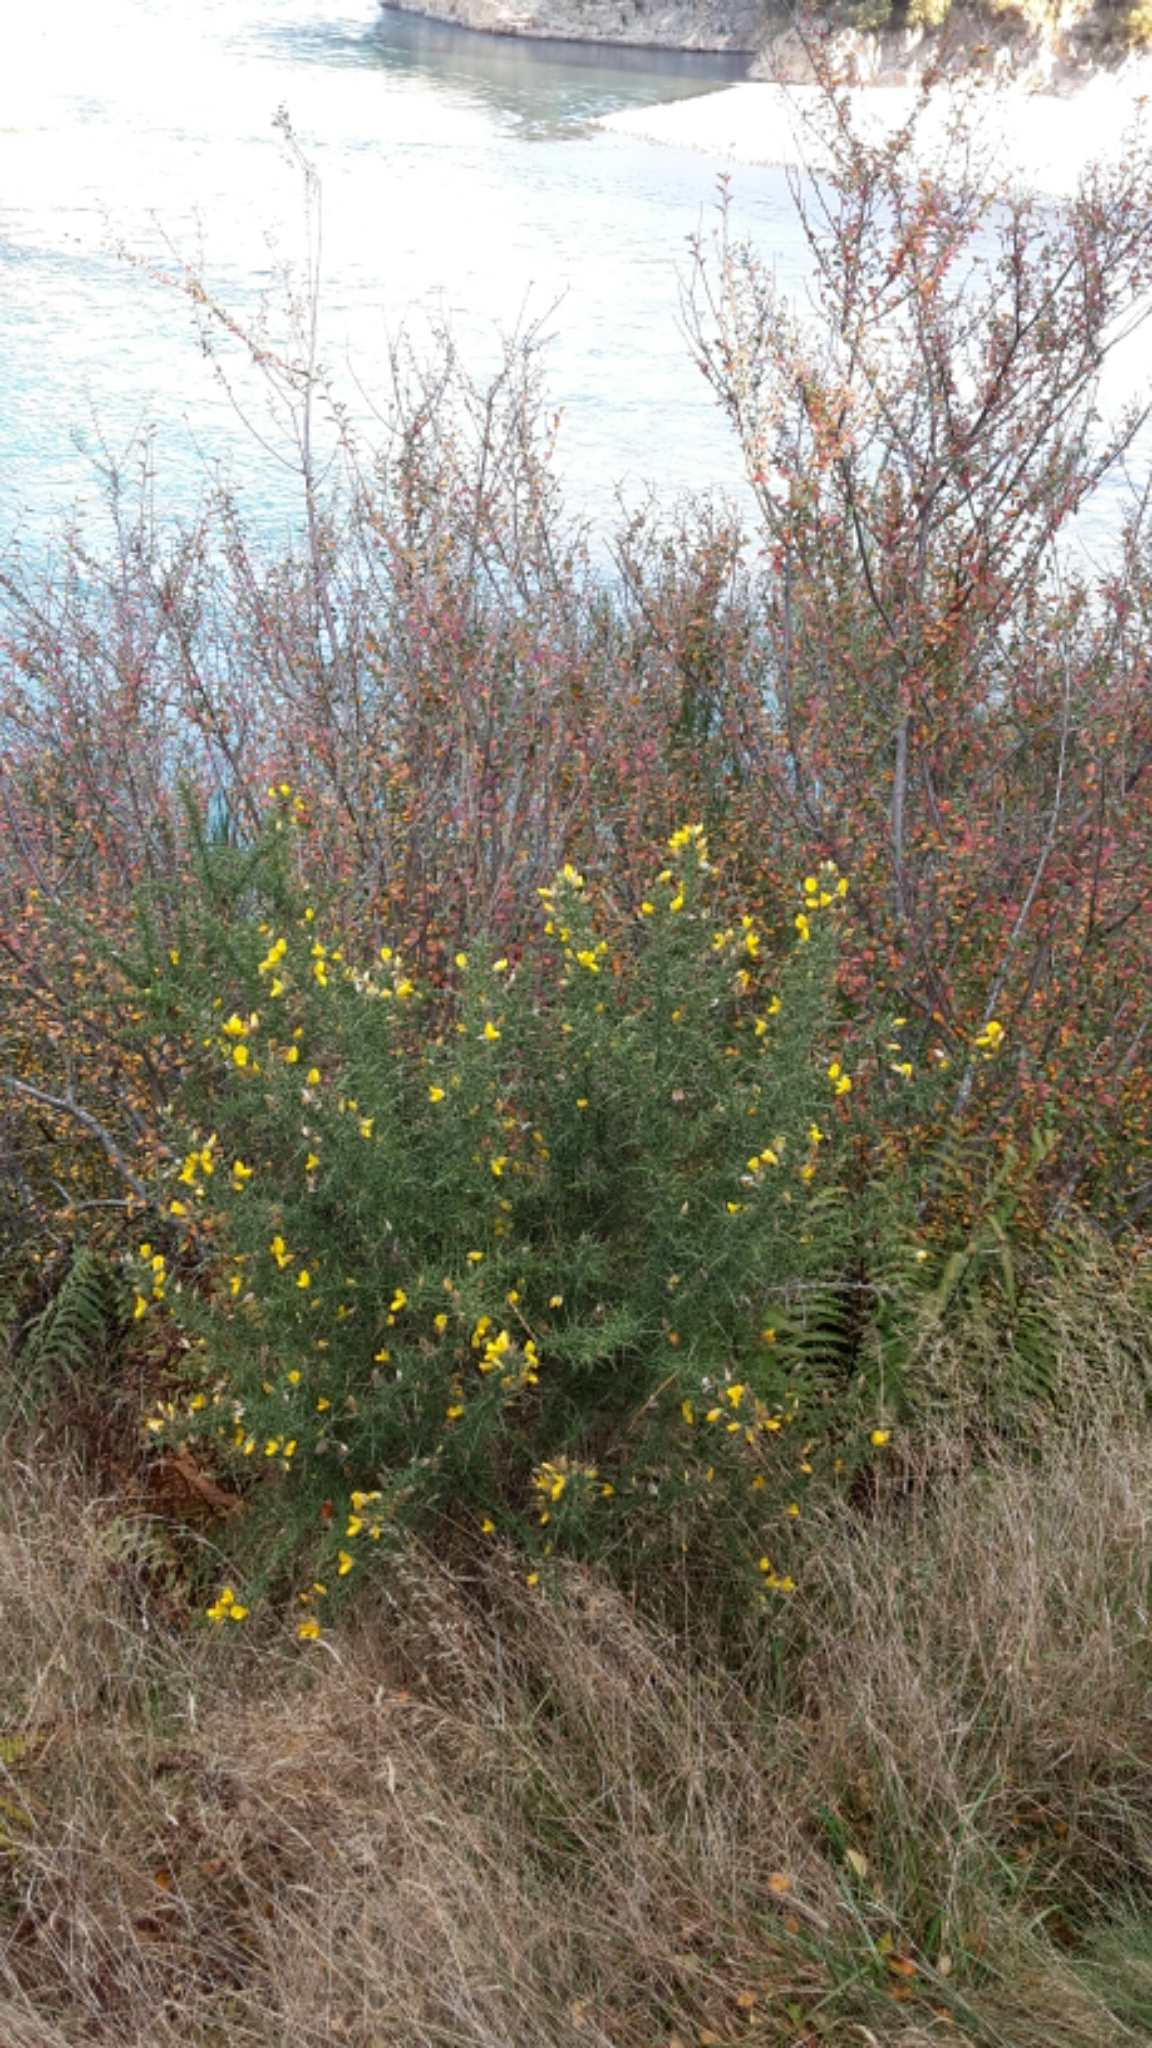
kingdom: Plantae
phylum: Tracheophyta
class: Magnoliopsida
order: Fabales
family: Fabaceae
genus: Ulex
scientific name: Ulex europaeus
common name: Common gorse
